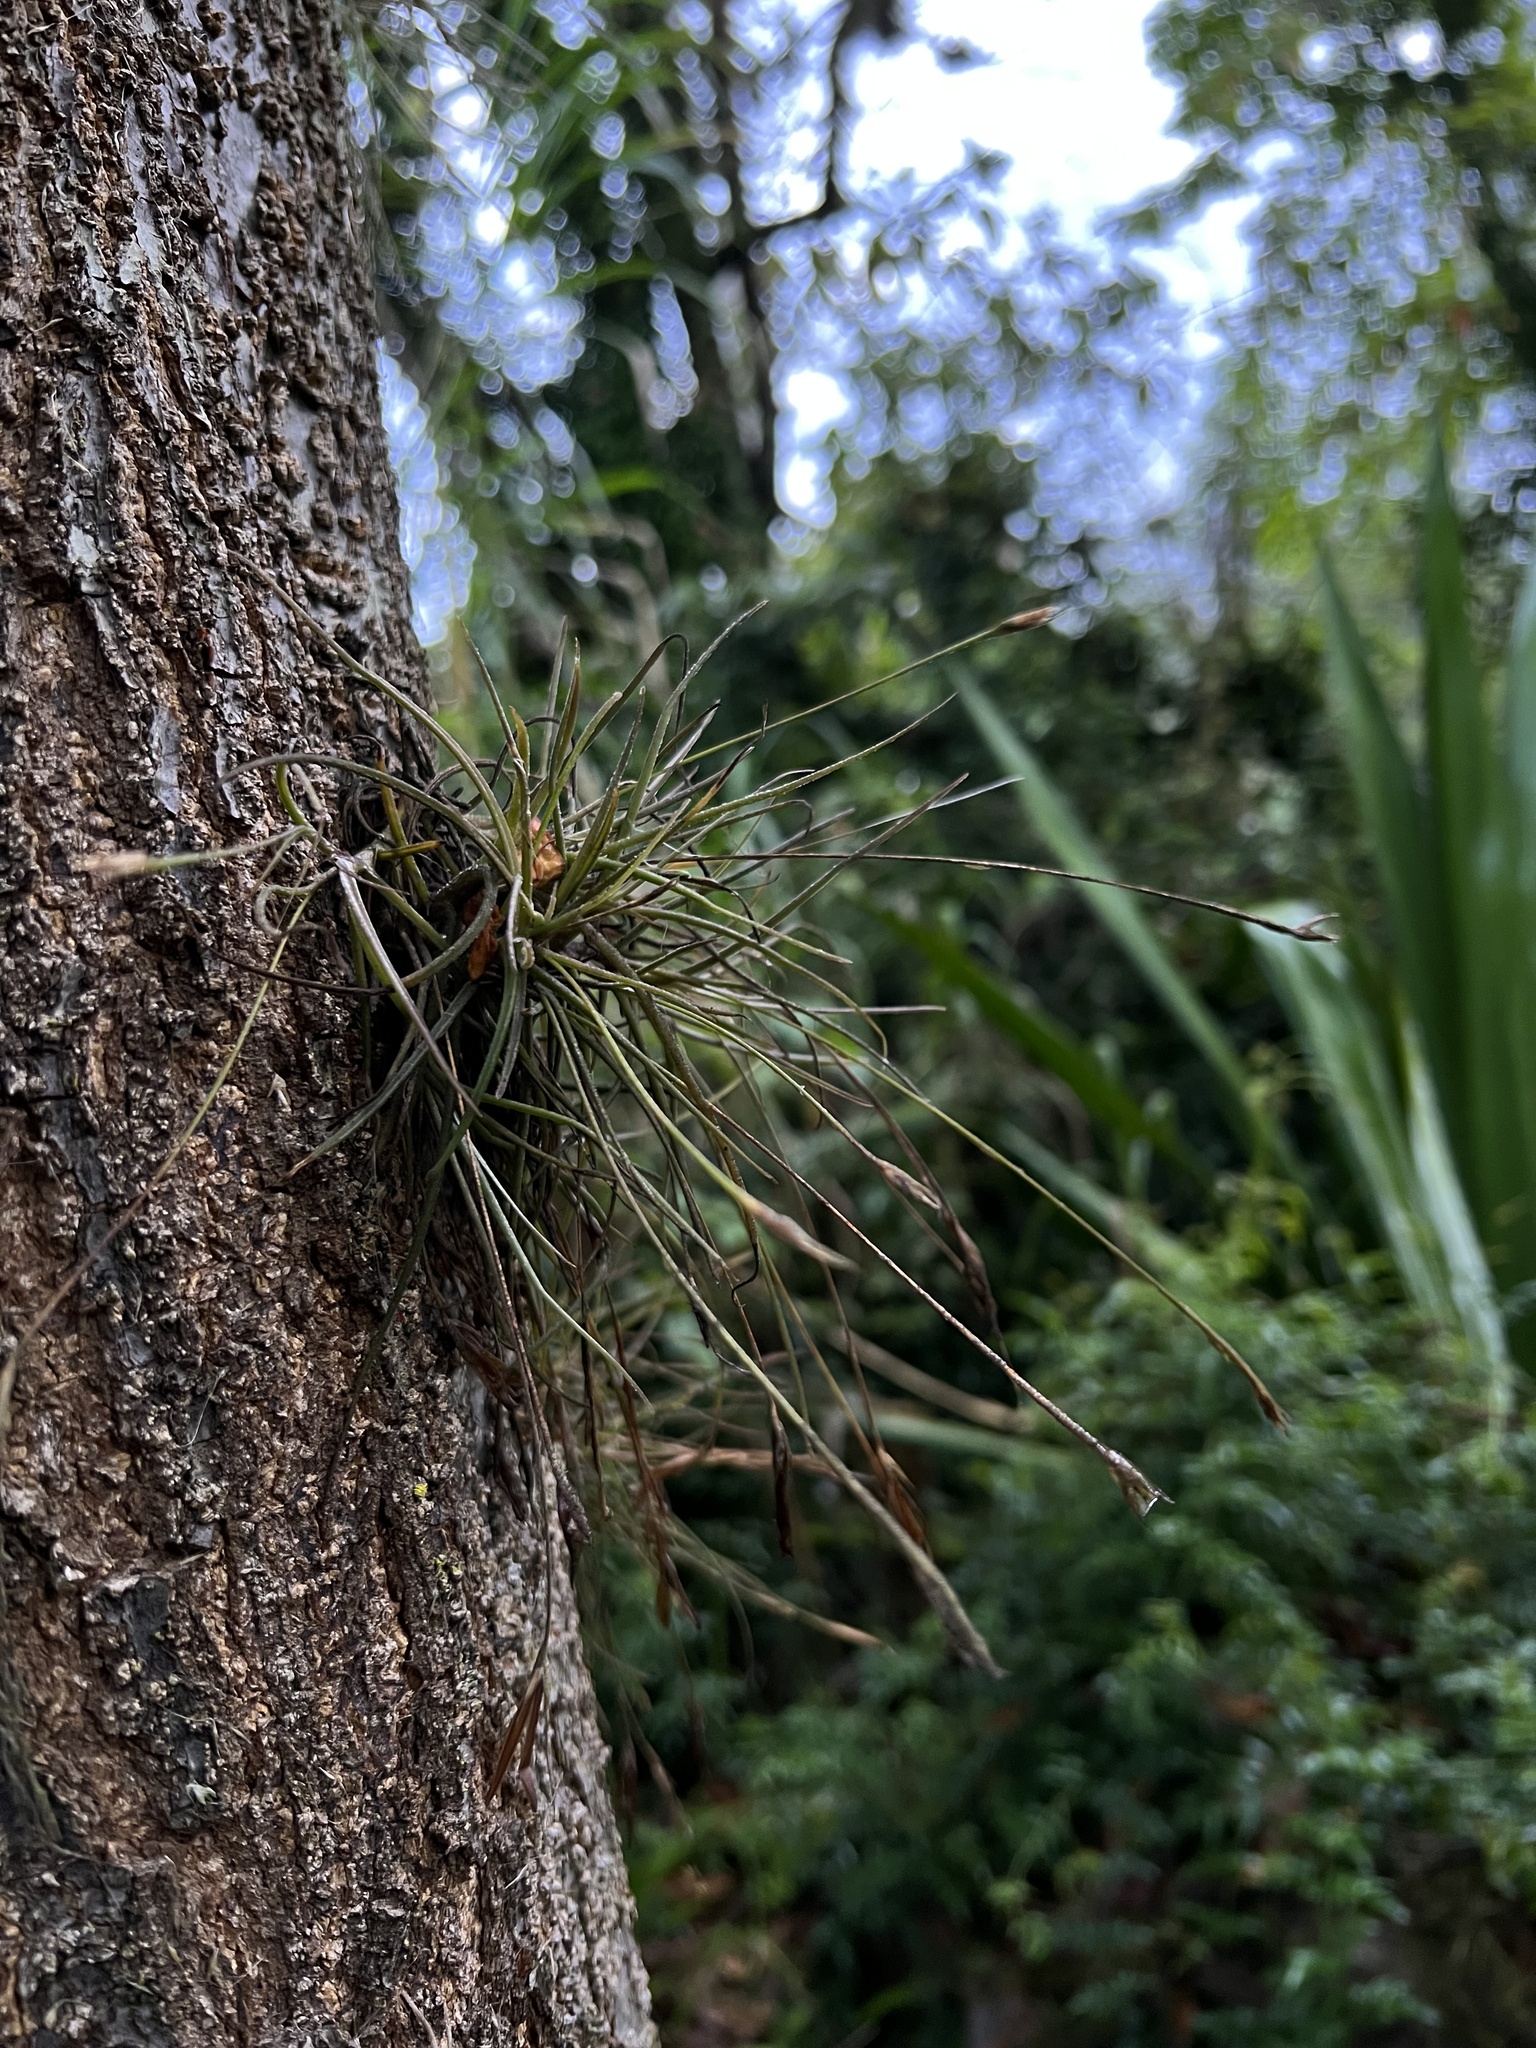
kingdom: Plantae
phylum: Tracheophyta
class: Liliopsida
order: Poales
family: Bromeliaceae
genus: Tillandsia
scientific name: Tillandsia recurvata
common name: Small ballmoss
